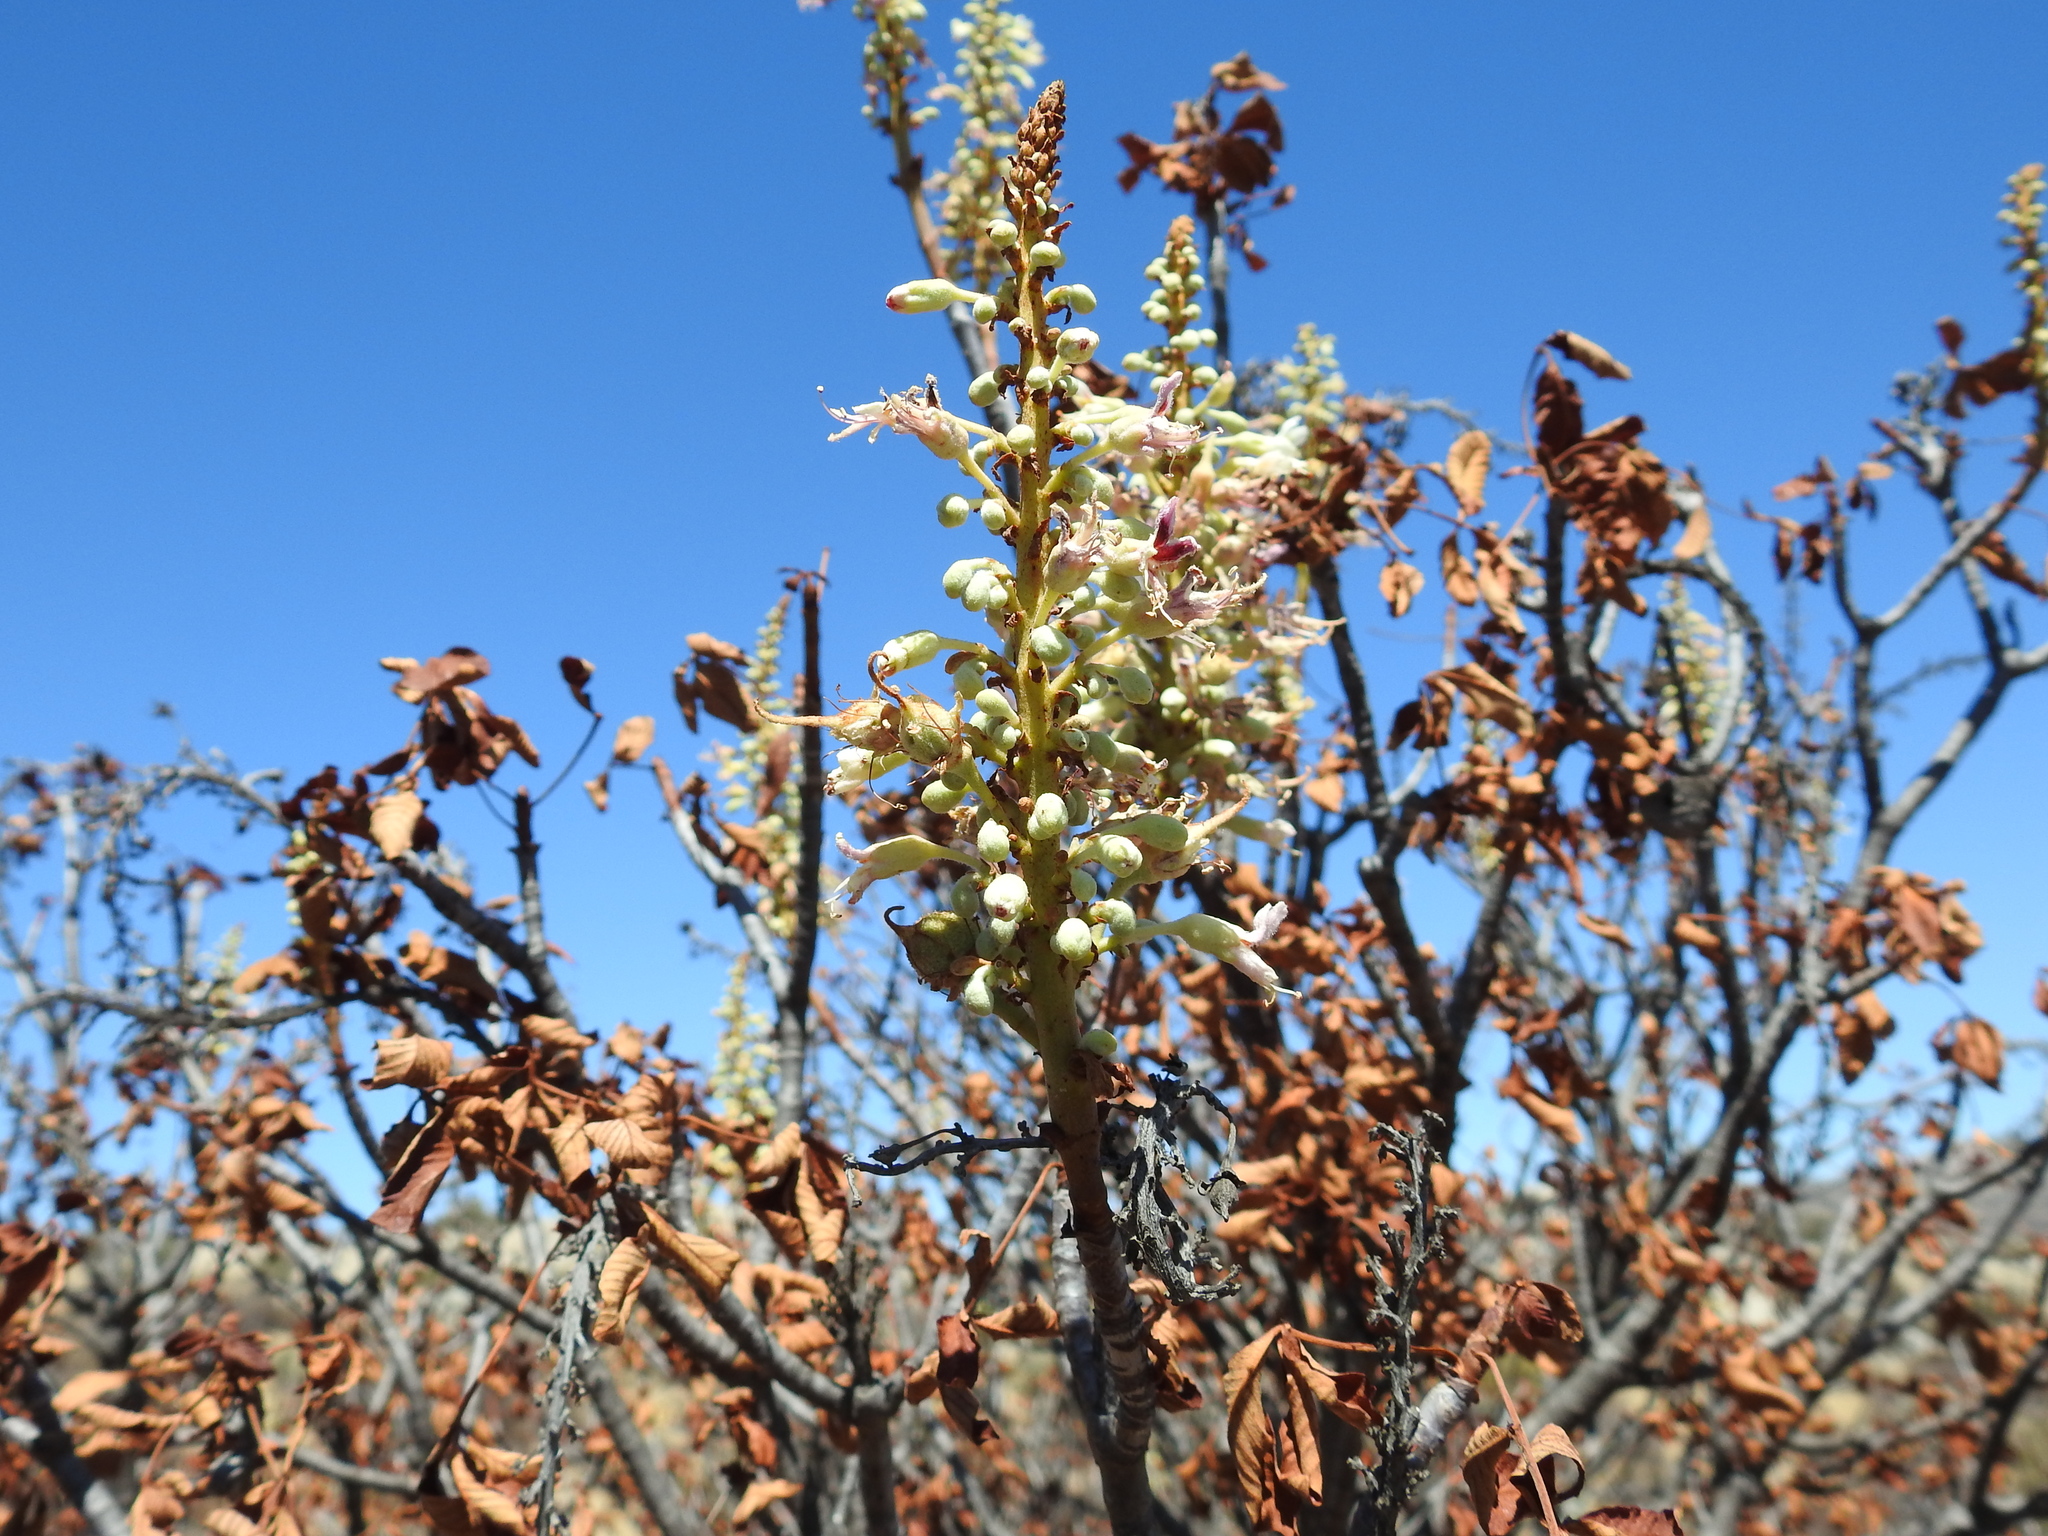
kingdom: Plantae
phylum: Tracheophyta
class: Magnoliopsida
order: Sapindales
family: Sapindaceae
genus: Aesculus
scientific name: Aesculus parryi
